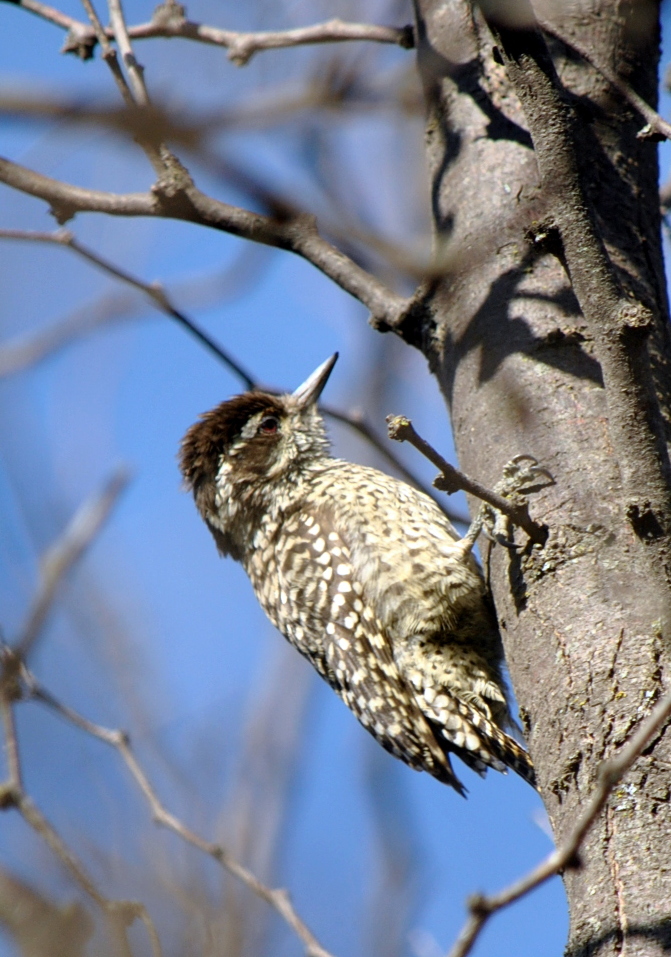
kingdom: Animalia
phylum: Chordata
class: Aves
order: Piciformes
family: Picidae
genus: Veniliornis
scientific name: Veniliornis mixtus
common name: Checkered woodpecker
